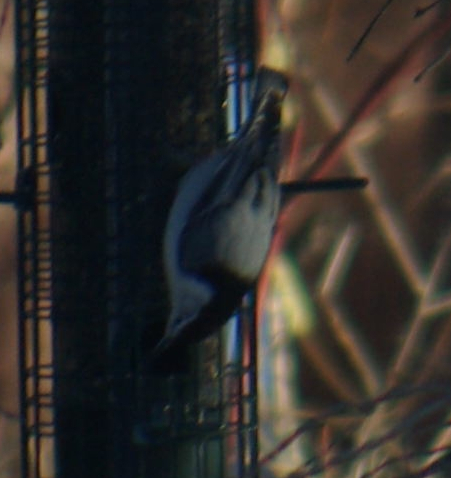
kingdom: Animalia
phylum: Chordata
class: Aves
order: Passeriformes
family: Sittidae
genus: Sitta
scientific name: Sitta carolinensis
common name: White-breasted nuthatch
